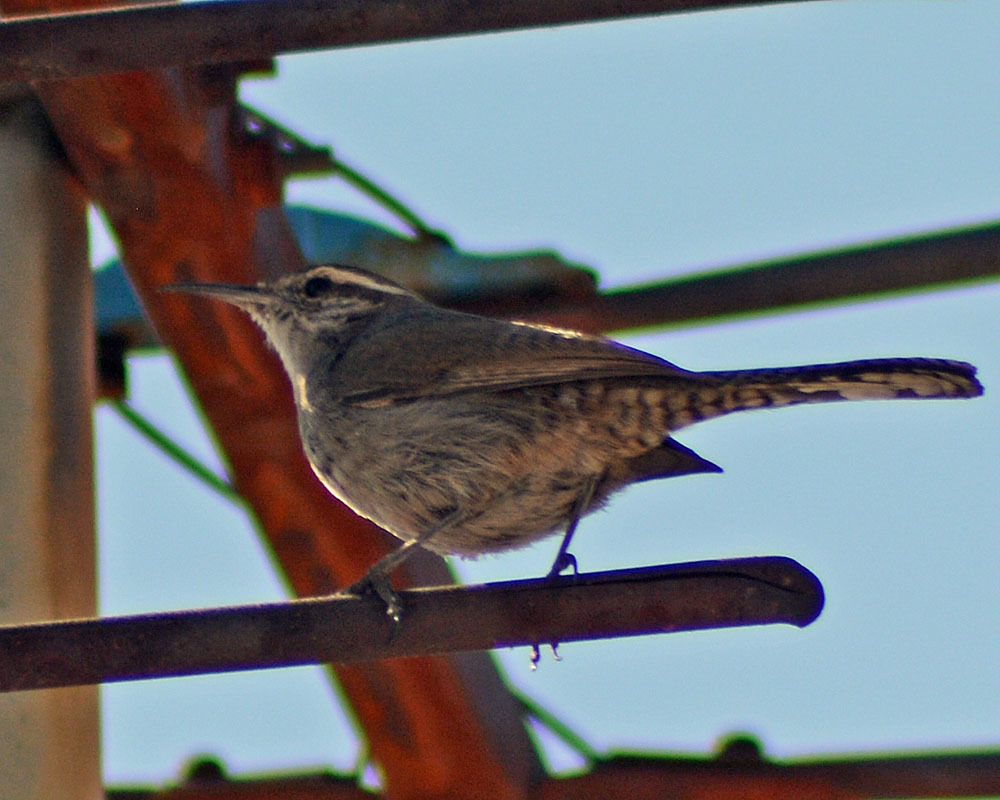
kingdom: Animalia
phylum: Chordata
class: Aves
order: Passeriformes
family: Troglodytidae
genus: Thryomanes
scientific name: Thryomanes bewickii
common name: Bewick's wren
